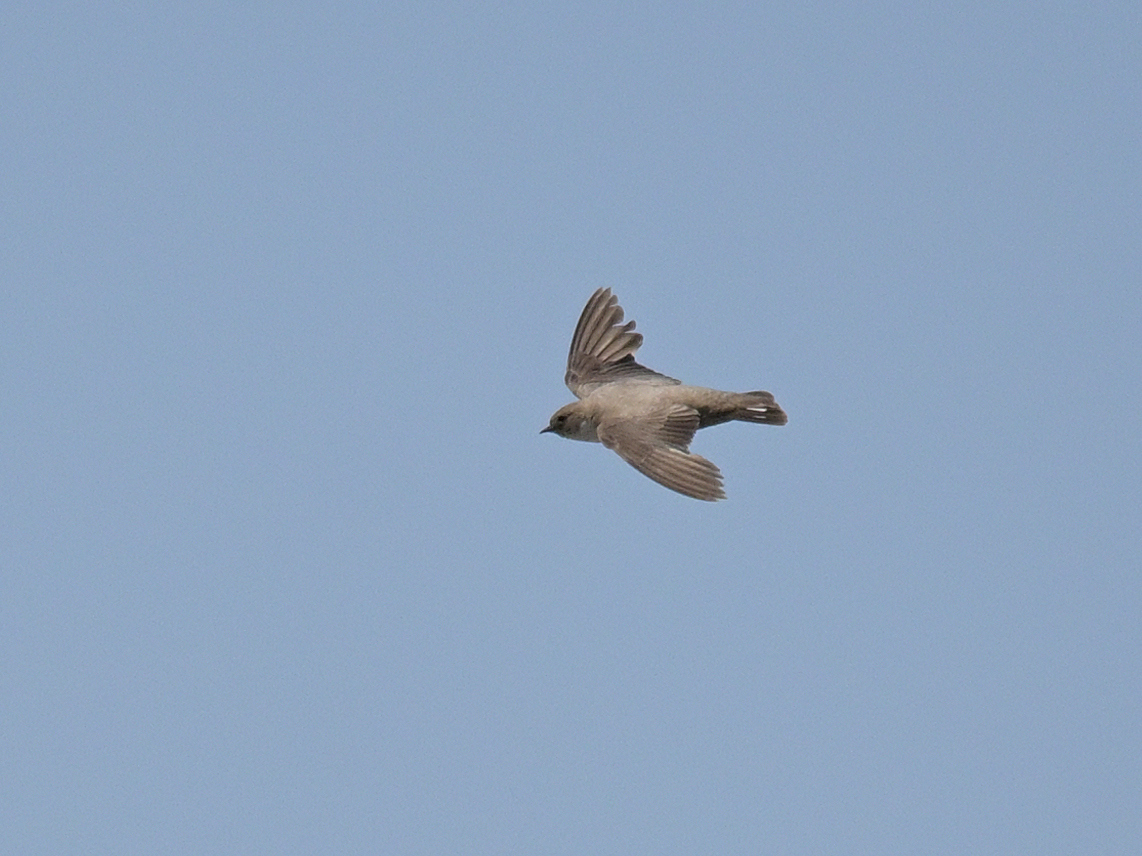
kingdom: Animalia
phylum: Chordata
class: Aves
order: Passeriformes
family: Hirundinidae
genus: Ptyonoprogne
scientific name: Ptyonoprogne rupestris
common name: Eurasian crag martin
